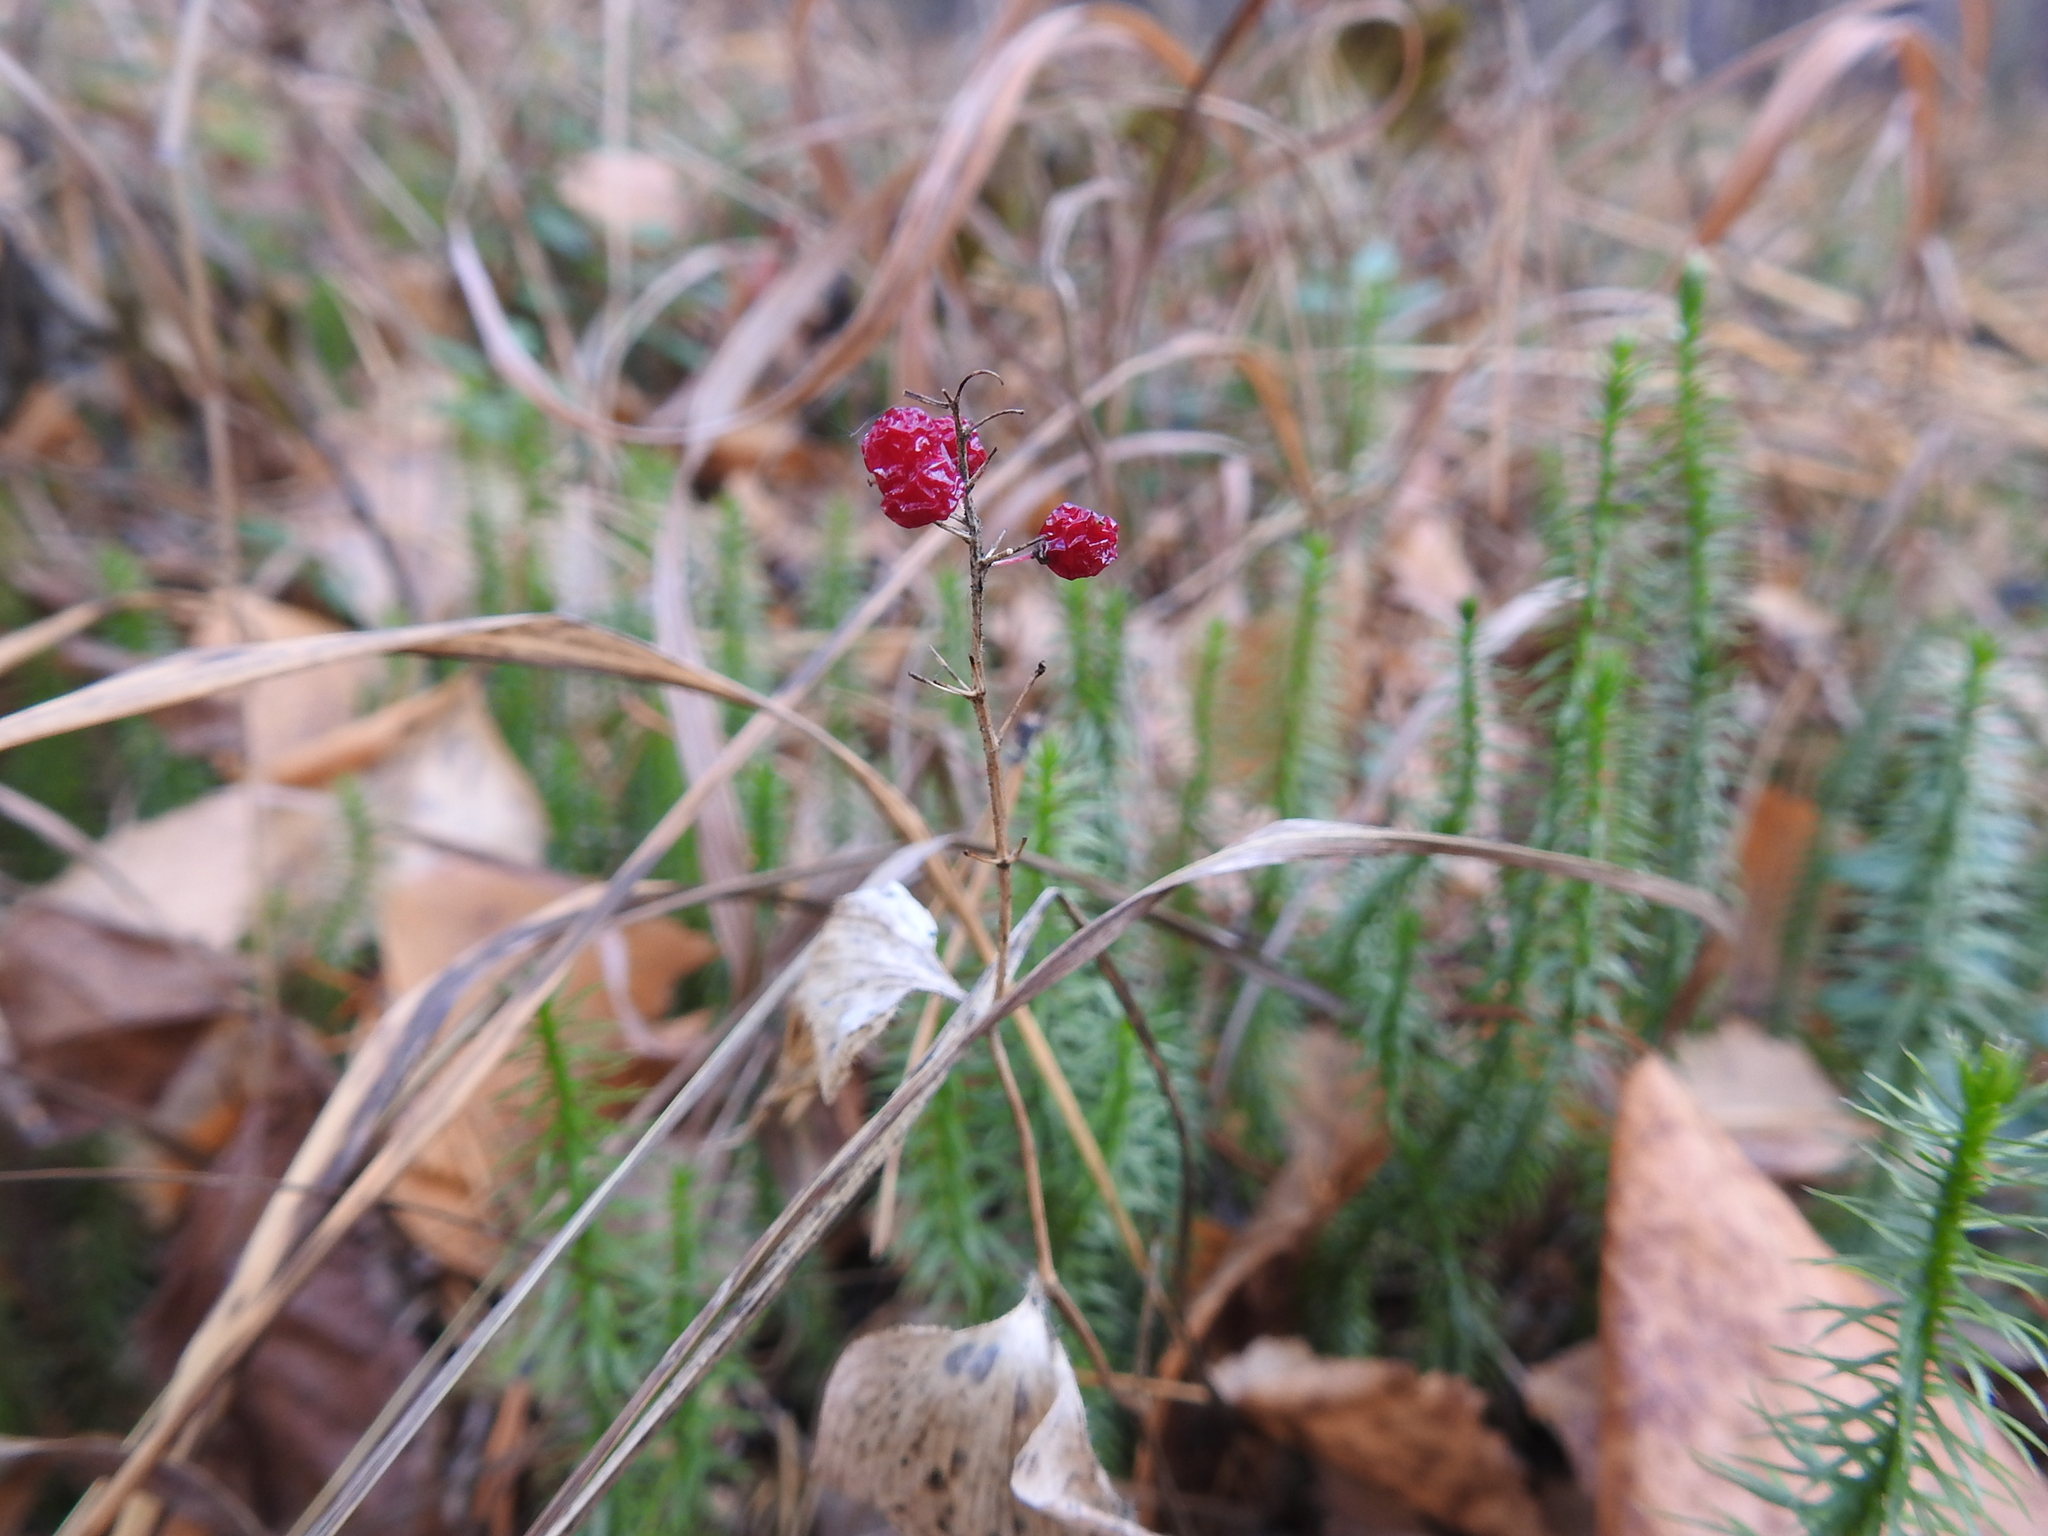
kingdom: Plantae
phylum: Tracheophyta
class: Liliopsida
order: Asparagales
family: Asparagaceae
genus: Maianthemum
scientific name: Maianthemum bifolium
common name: May lily
